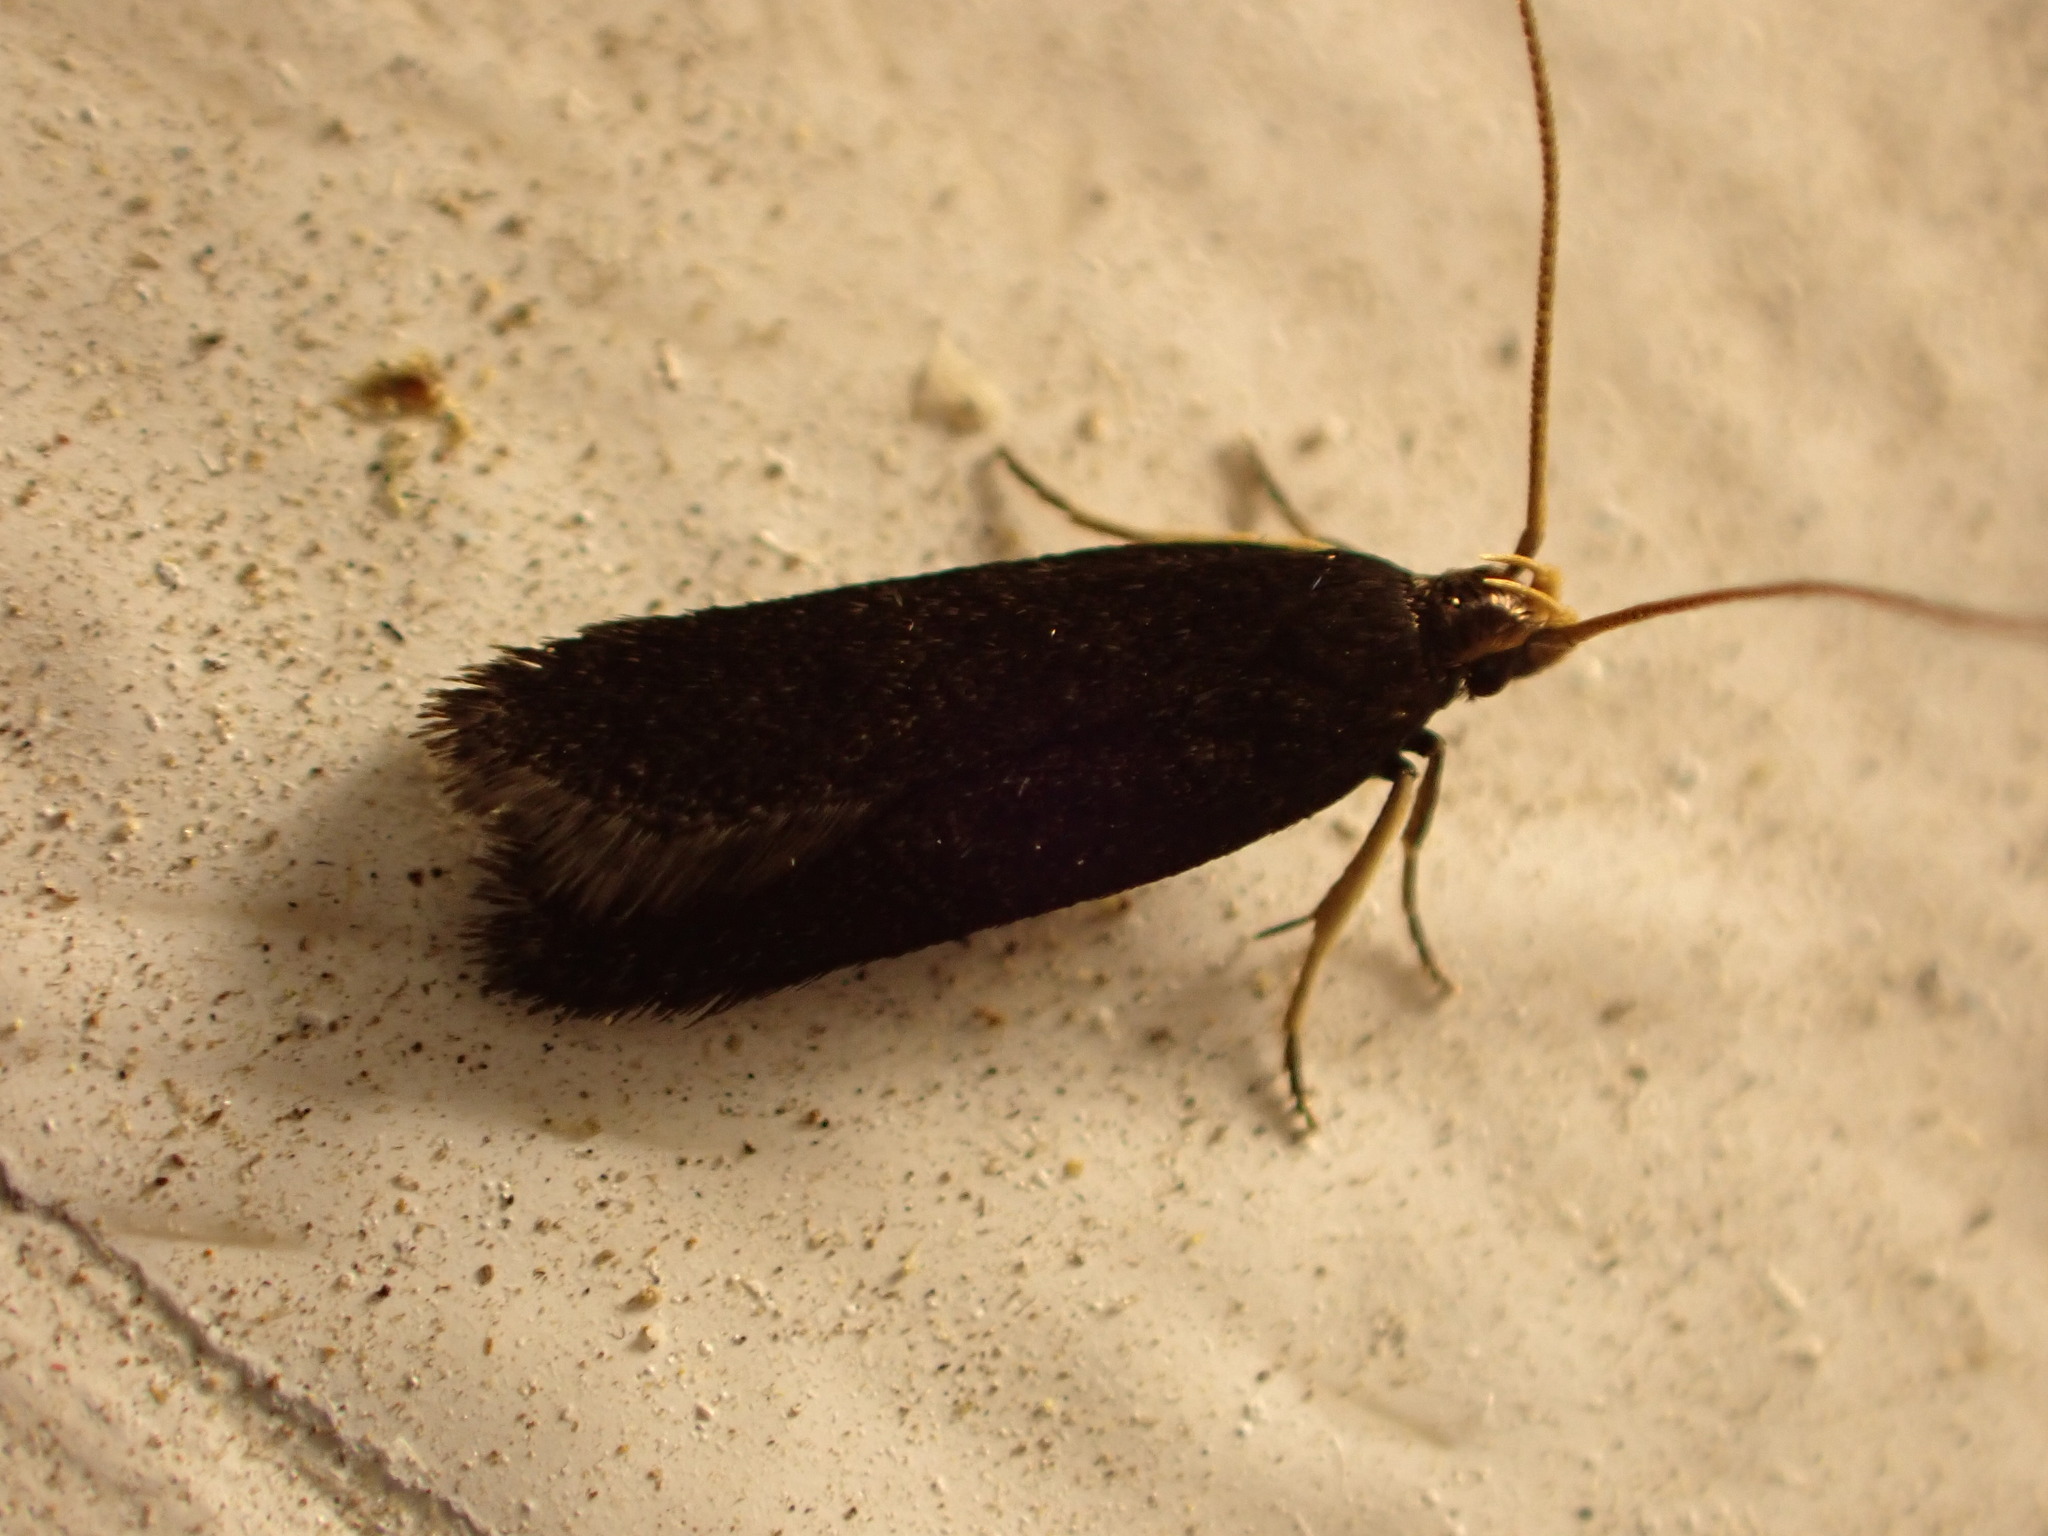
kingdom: Animalia
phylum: Arthropoda
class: Insecta
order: Lepidoptera
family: Lecithoceridae
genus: Lecithocera
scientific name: Lecithocera micromela
